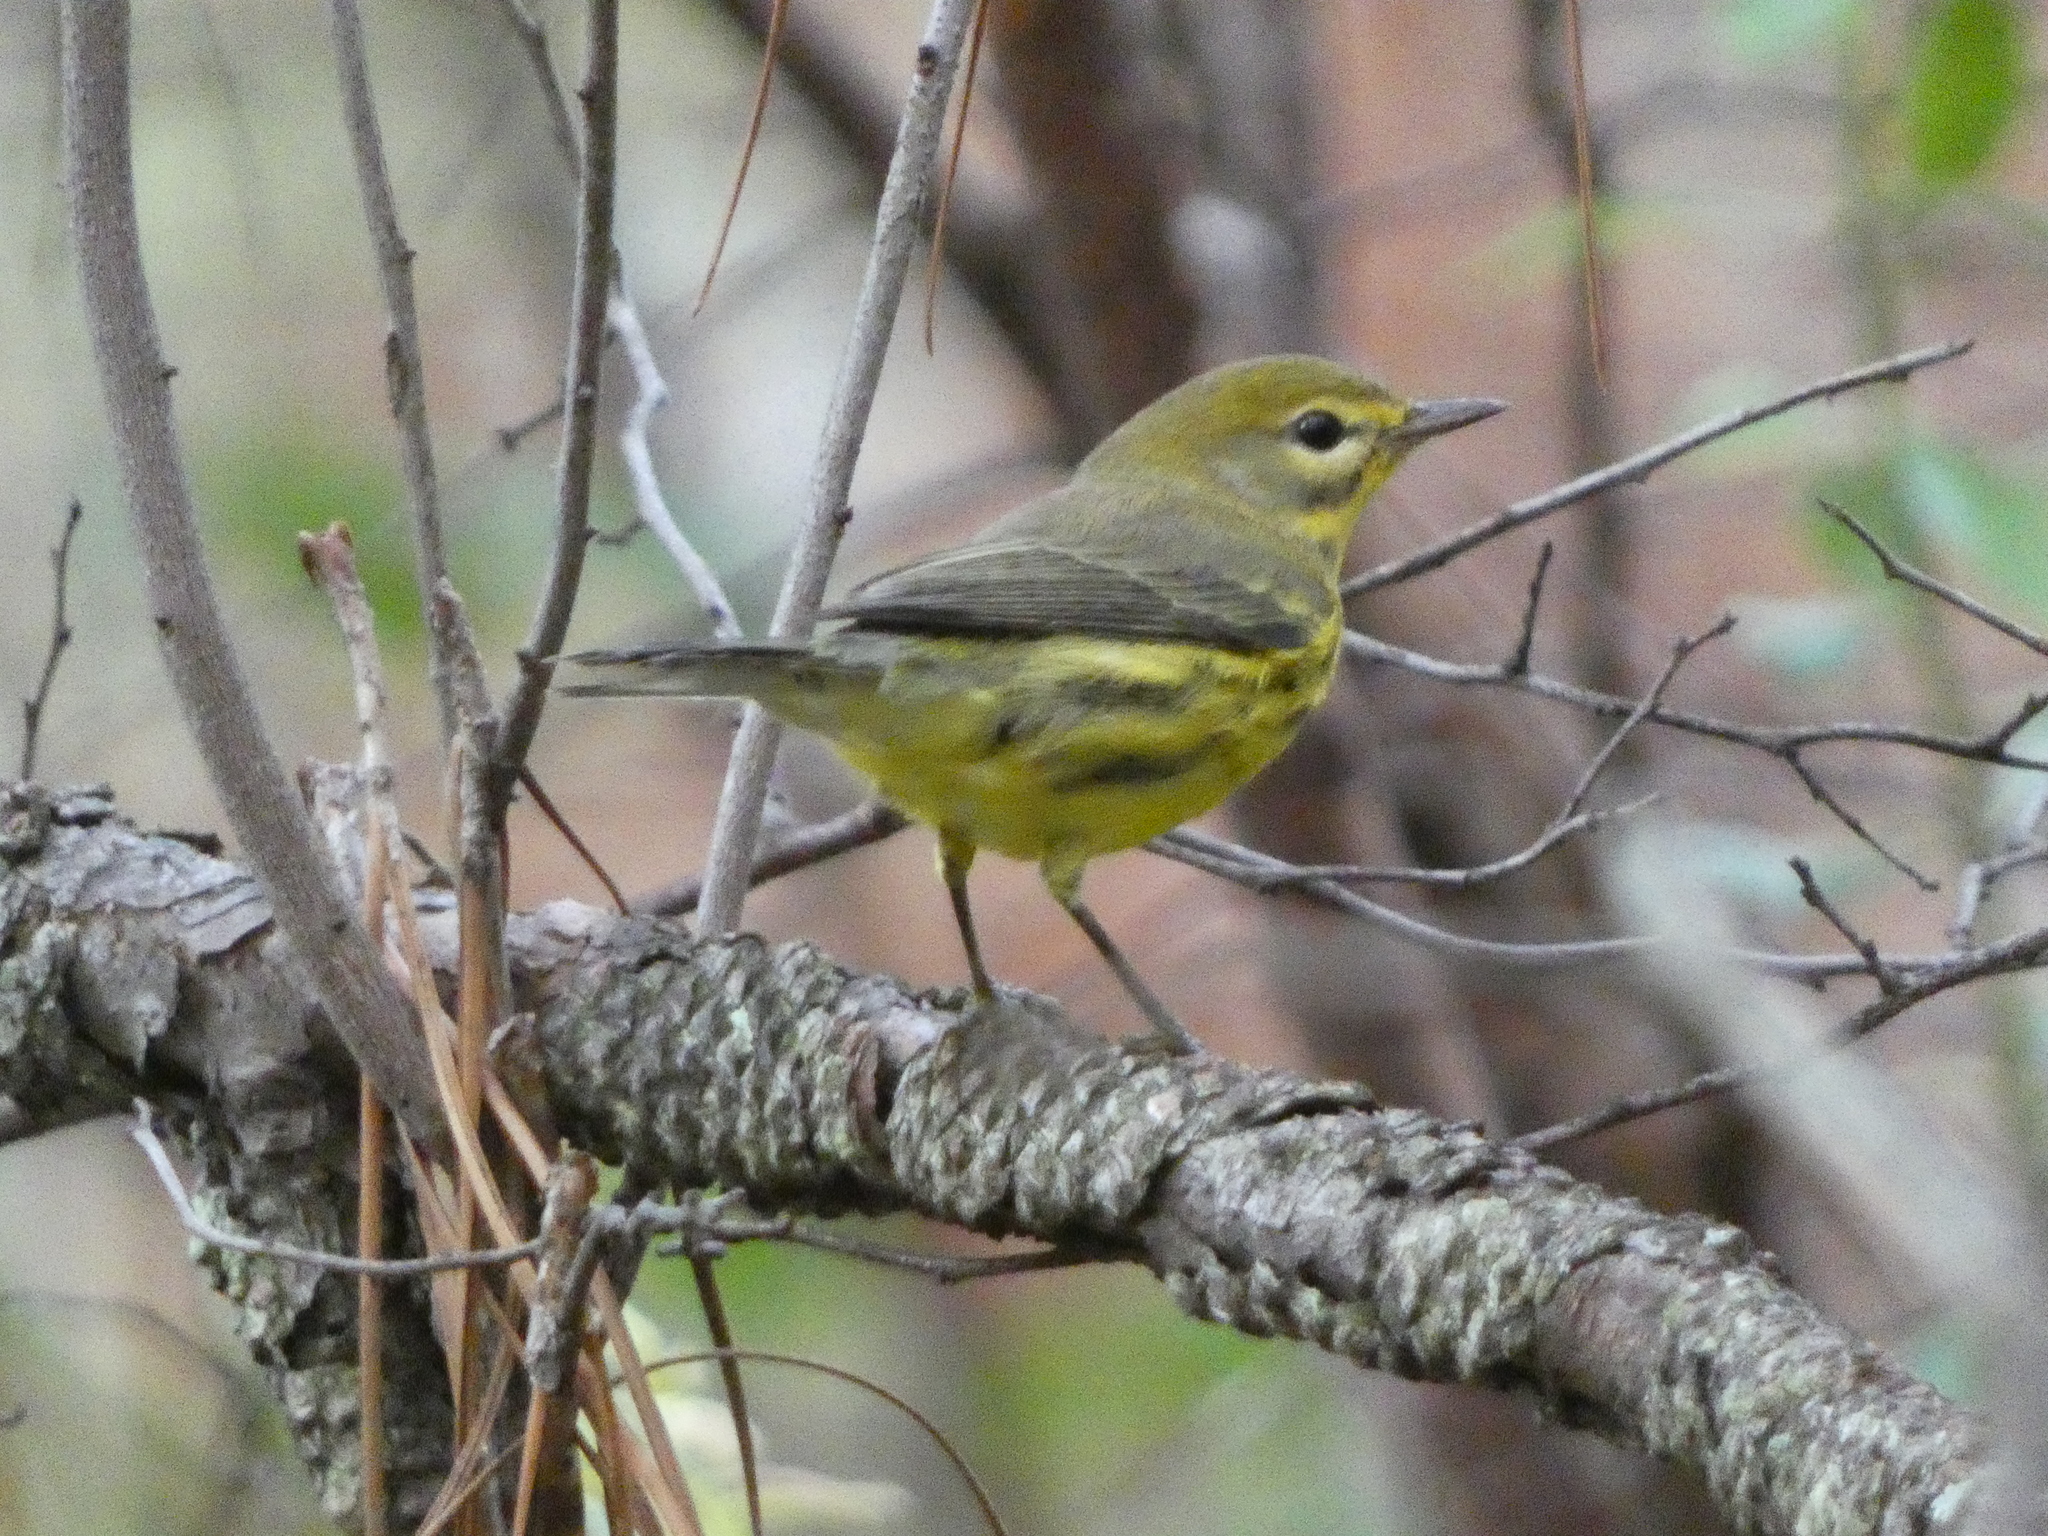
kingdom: Animalia
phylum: Chordata
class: Aves
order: Passeriformes
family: Parulidae
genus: Setophaga
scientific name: Setophaga discolor
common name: Prairie warbler
